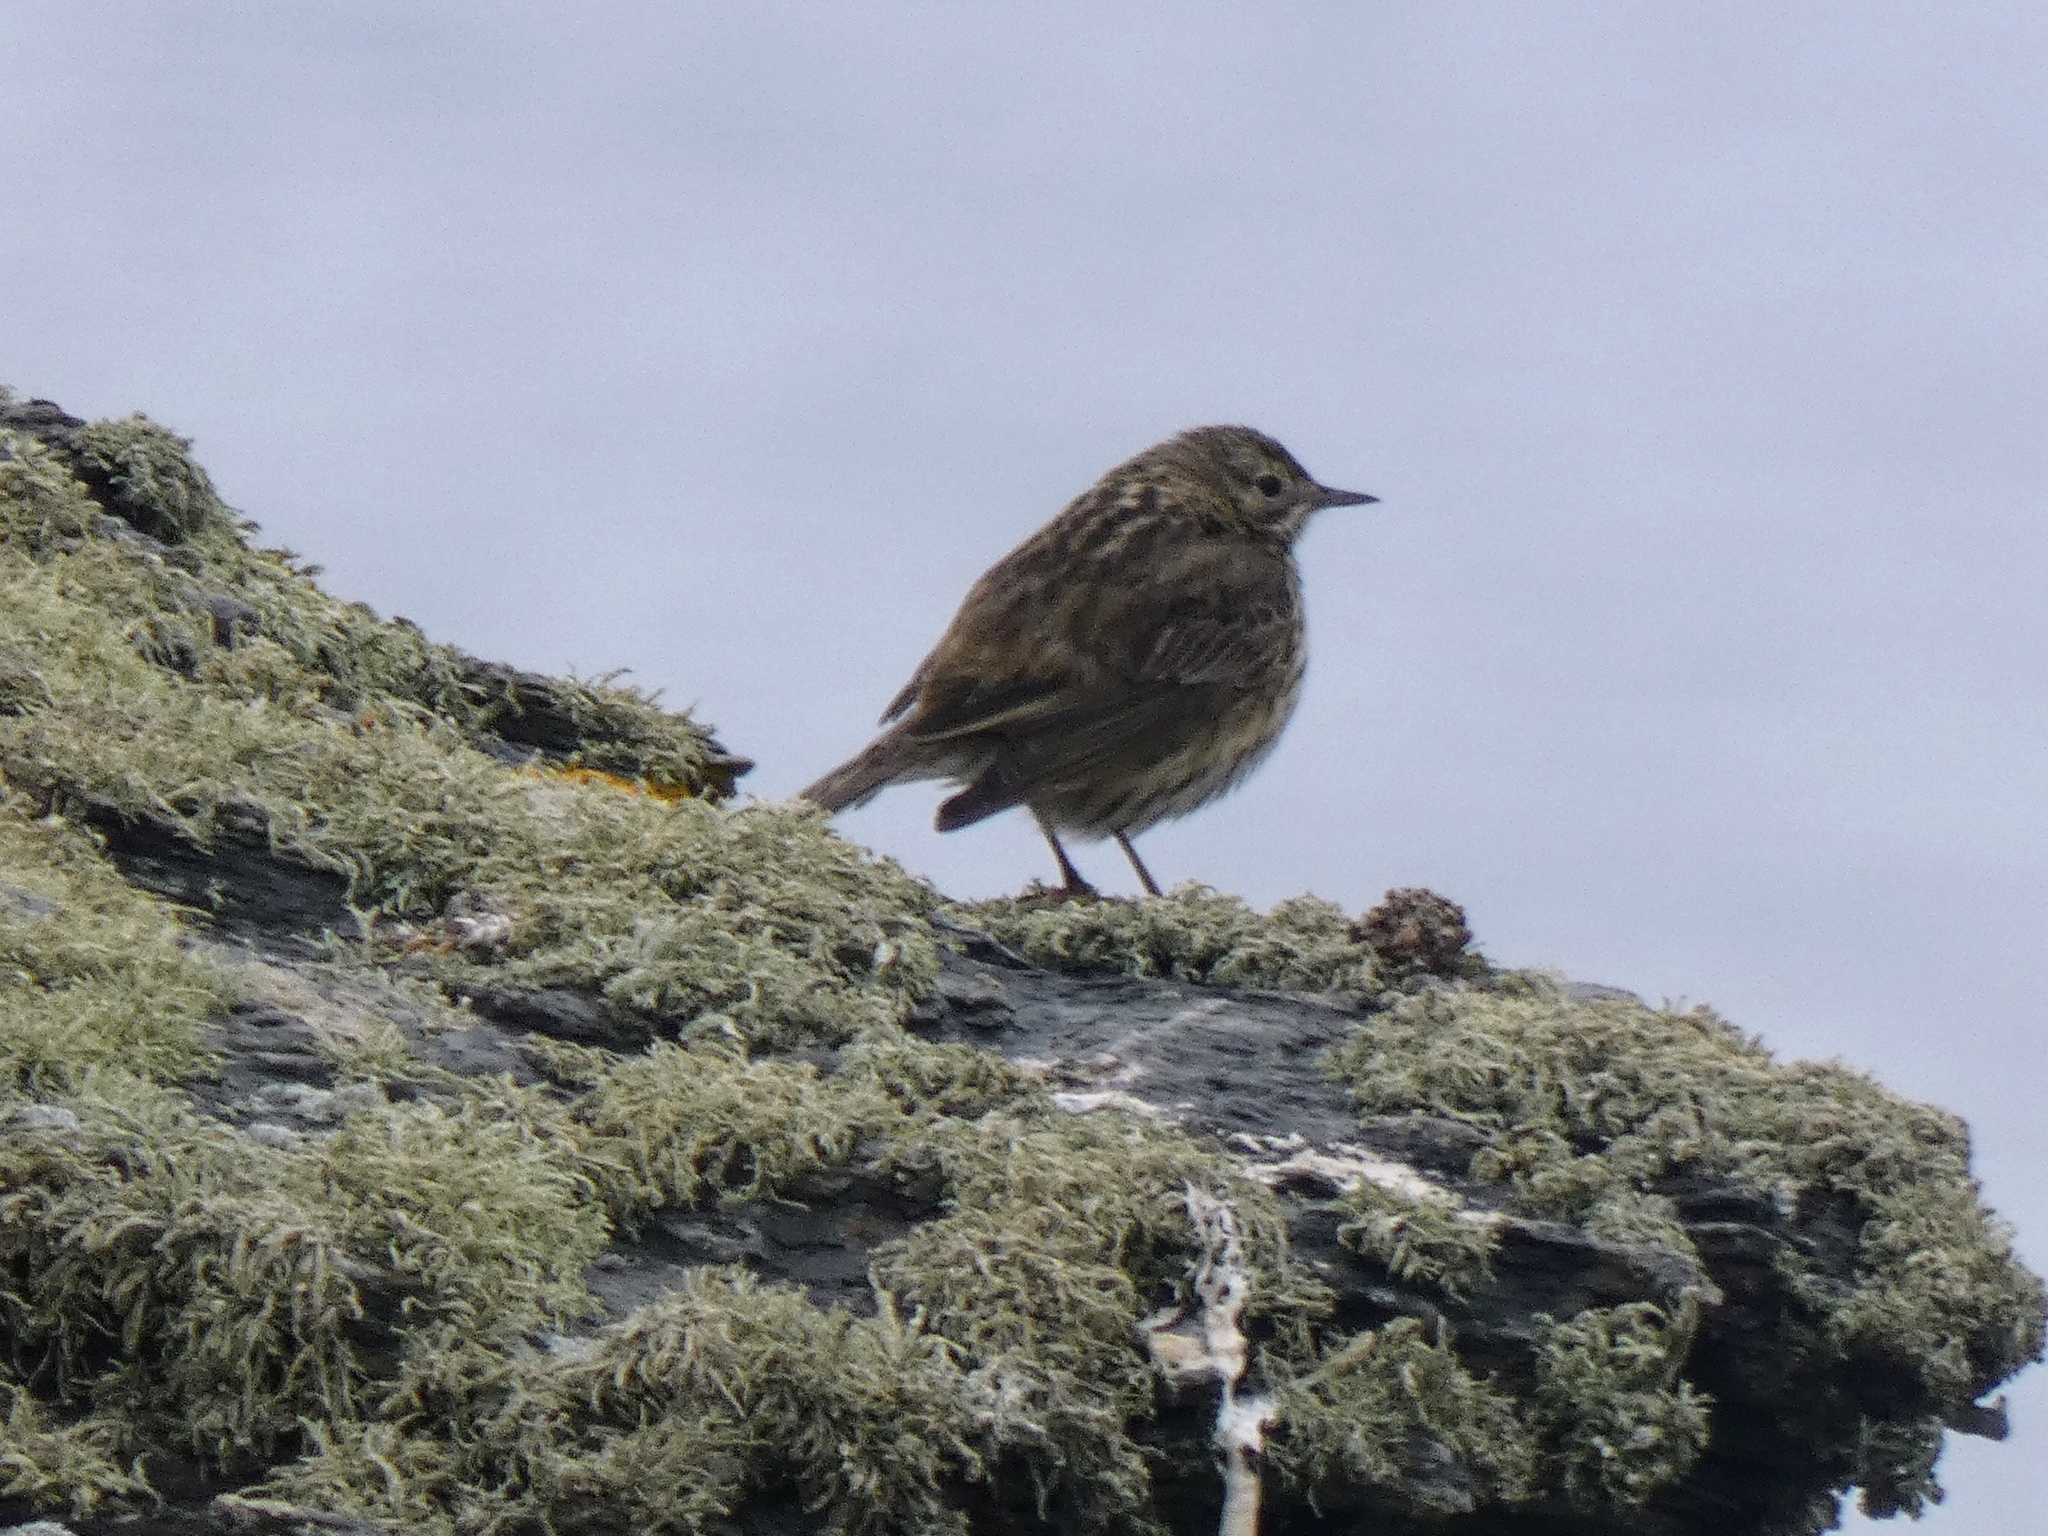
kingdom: Animalia
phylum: Chordata
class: Aves
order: Passeriformes
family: Motacillidae
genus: Anthus
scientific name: Anthus petrosus
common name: Eurasian rock pipit
